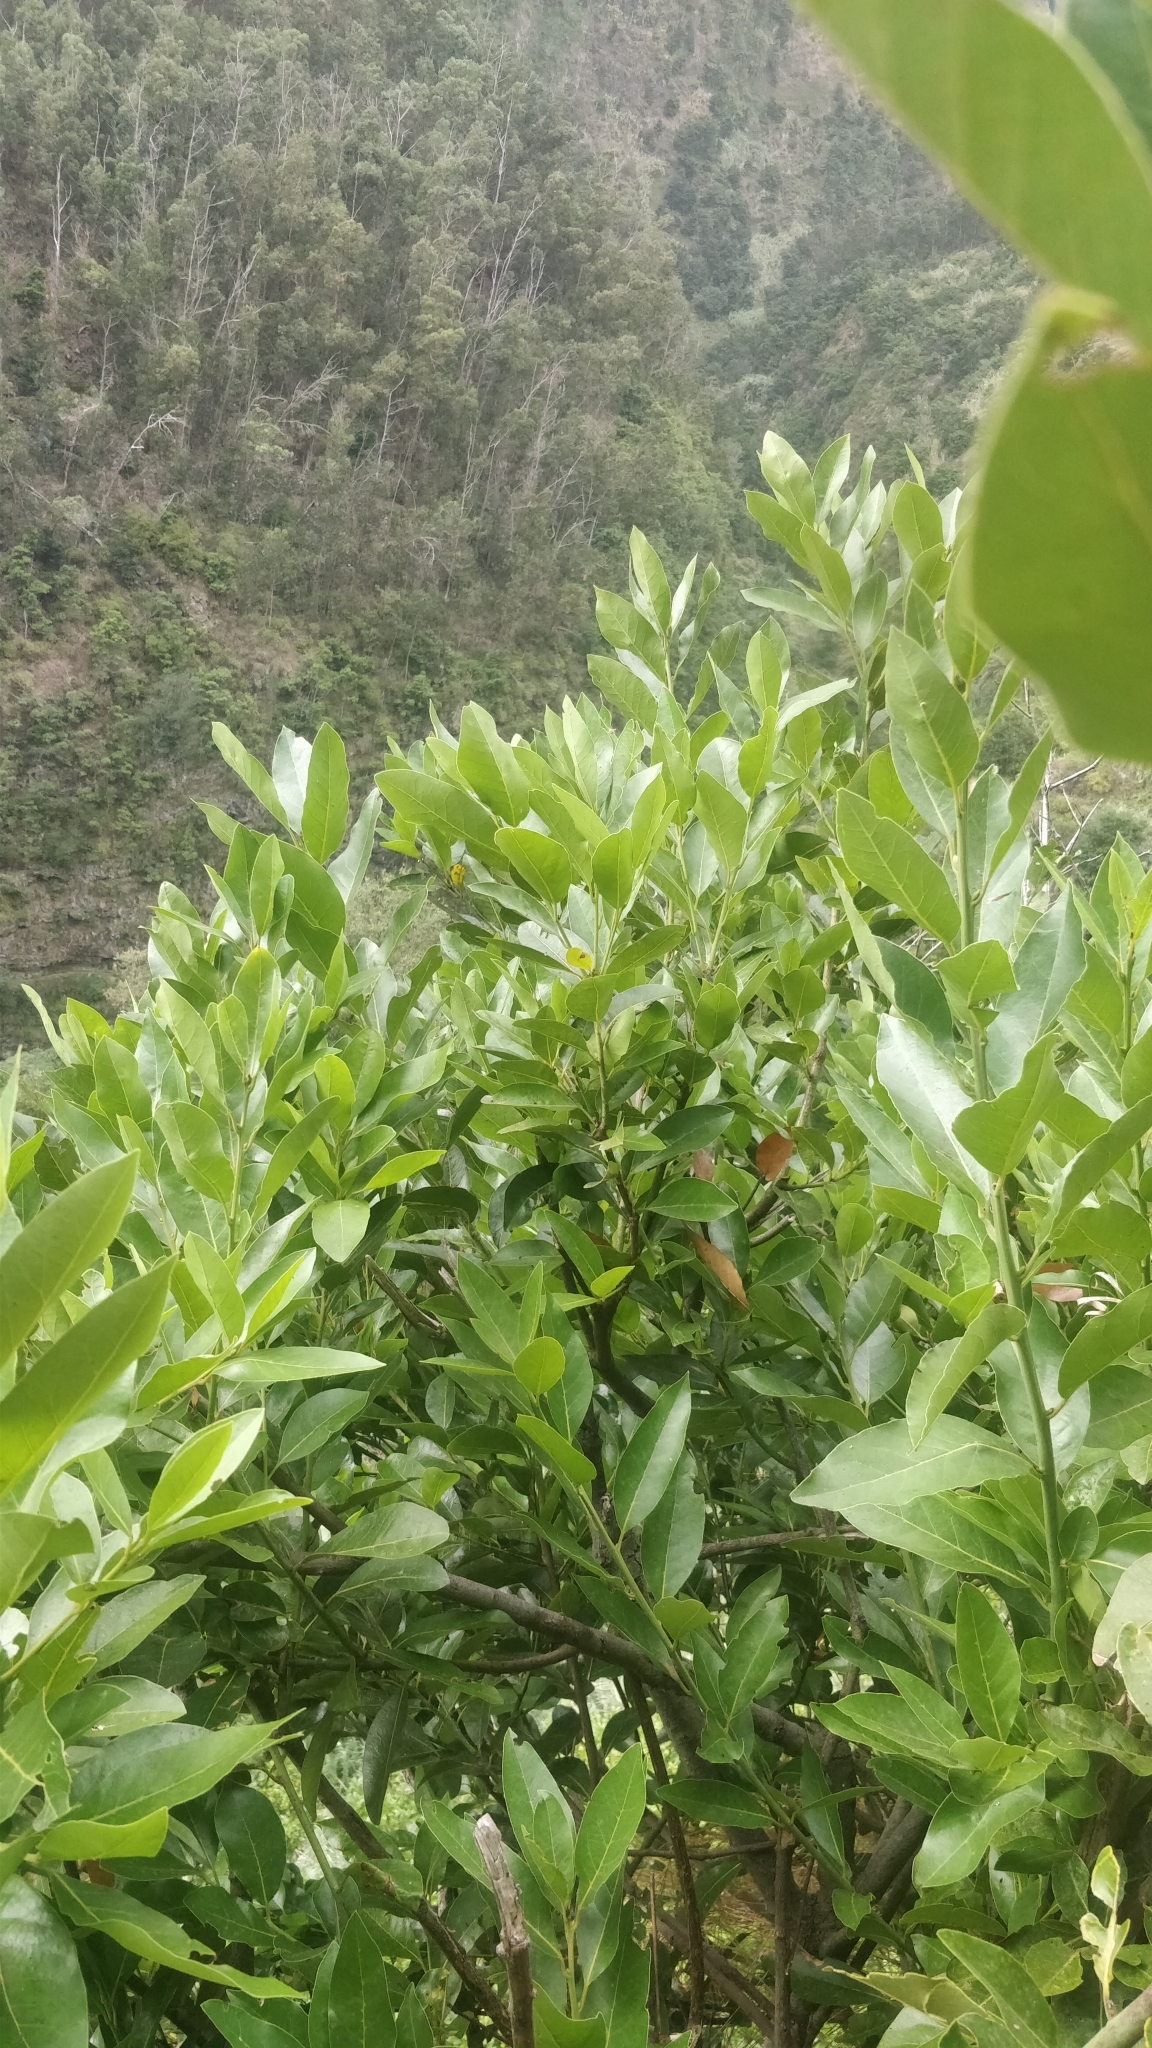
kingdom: Plantae
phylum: Tracheophyta
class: Magnoliopsida
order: Laurales
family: Lauraceae
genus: Laurus
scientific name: Laurus novocanariensis
